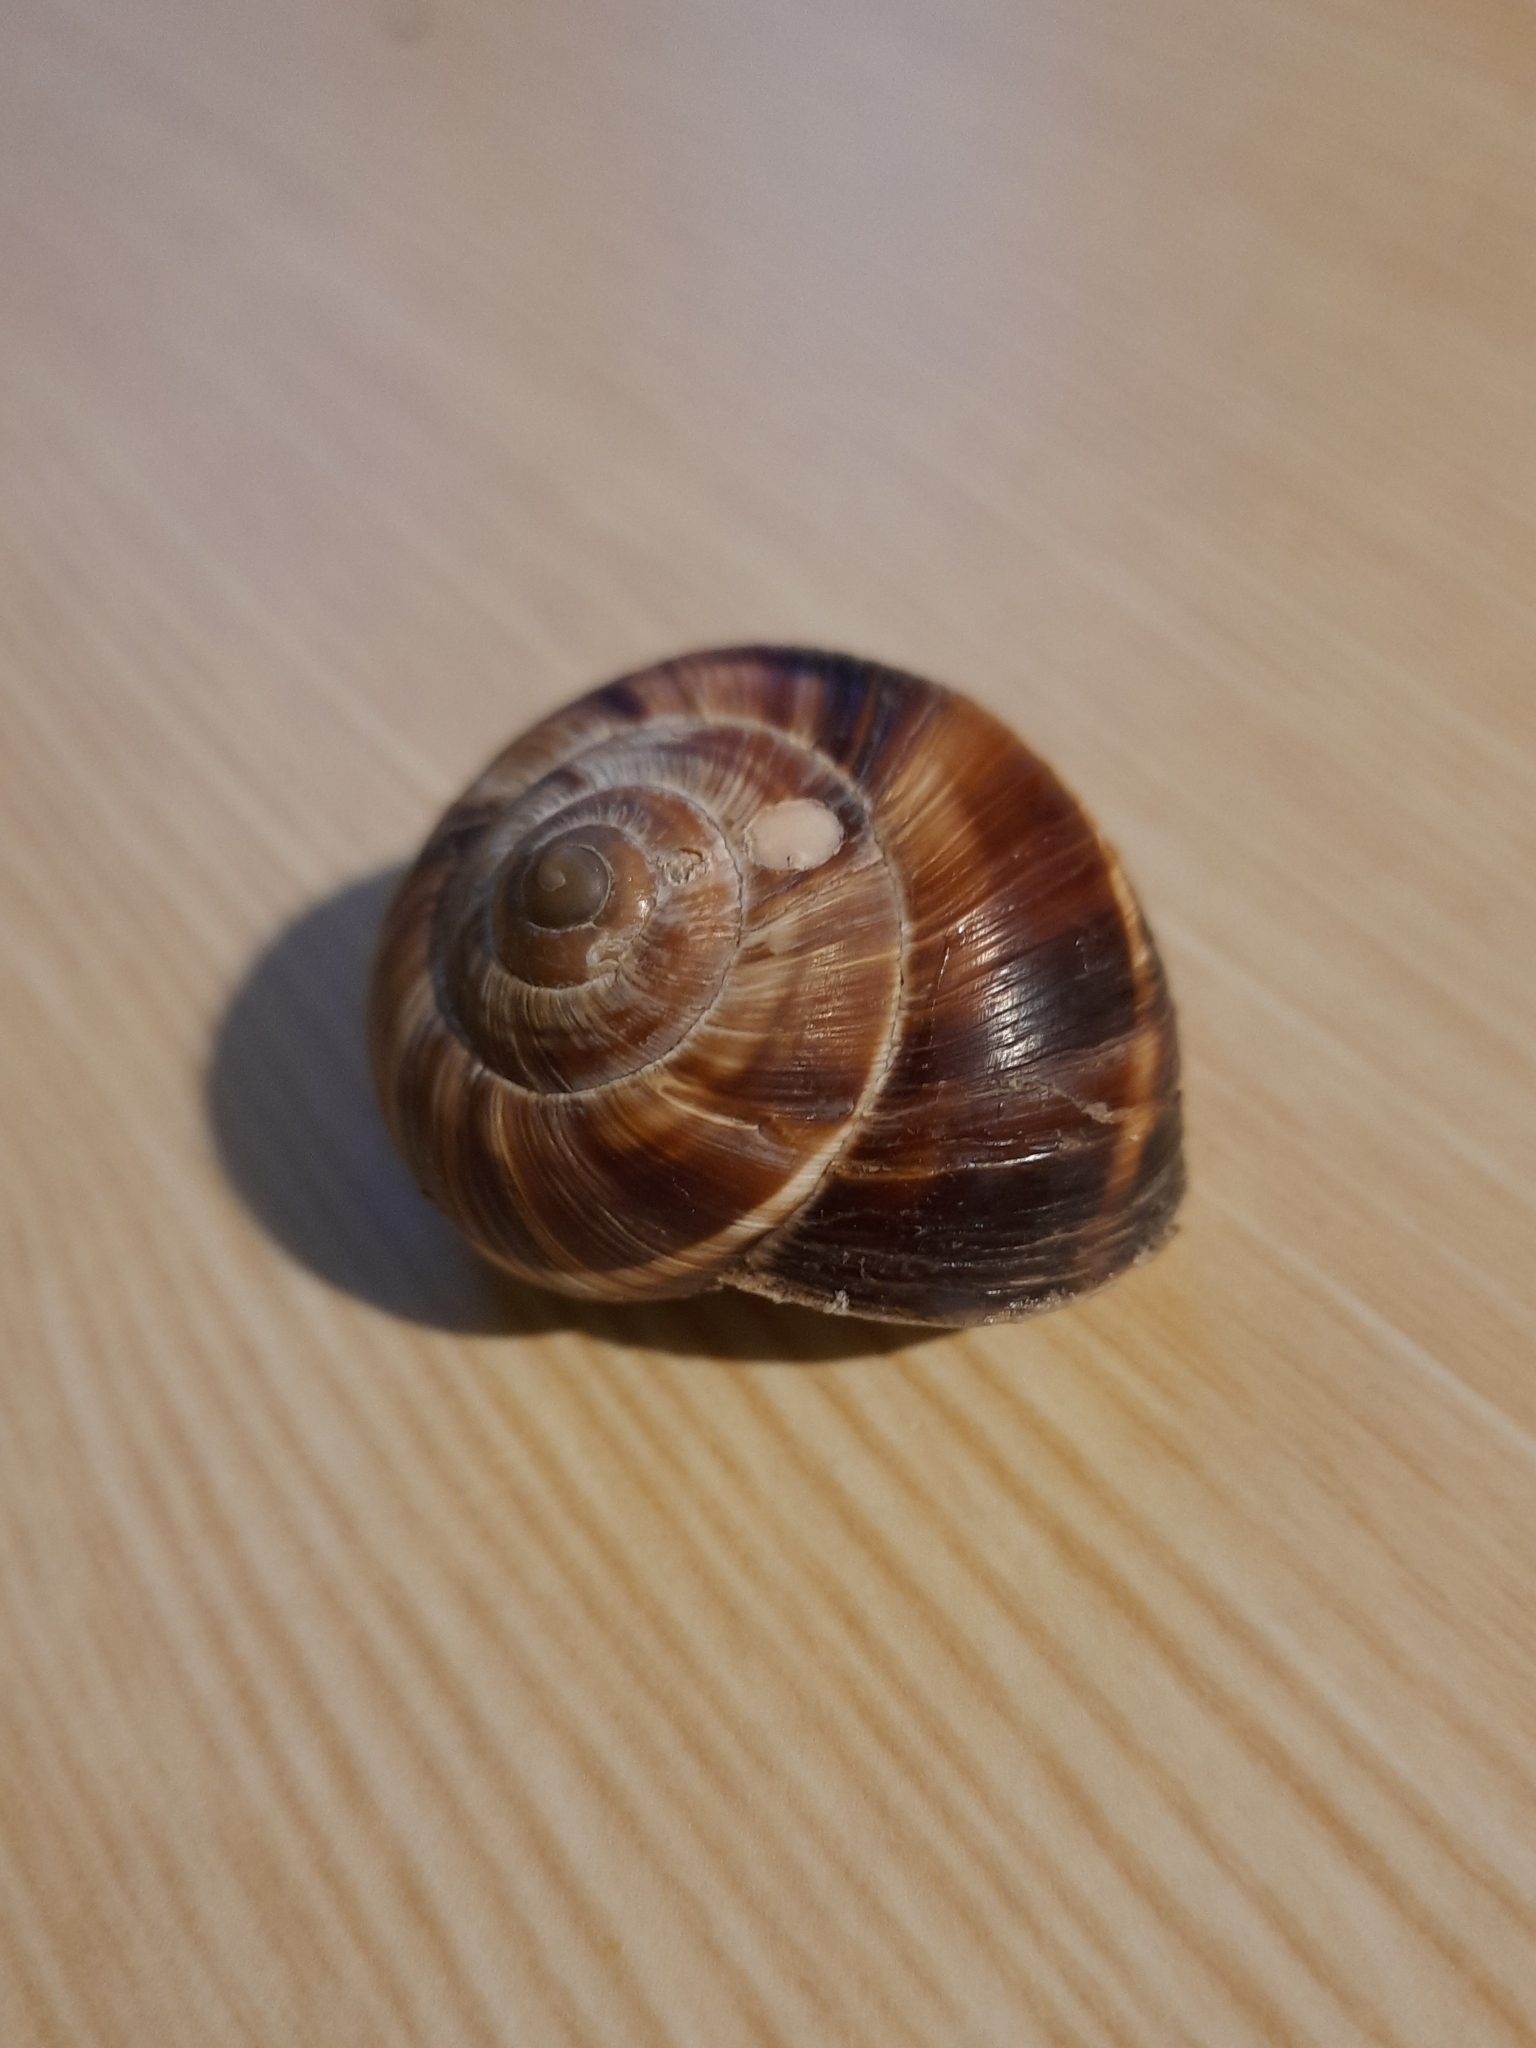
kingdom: Animalia
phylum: Mollusca
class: Gastropoda
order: Stylommatophora
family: Helicidae
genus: Helix
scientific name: Helix lucorum
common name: Turkish snail
